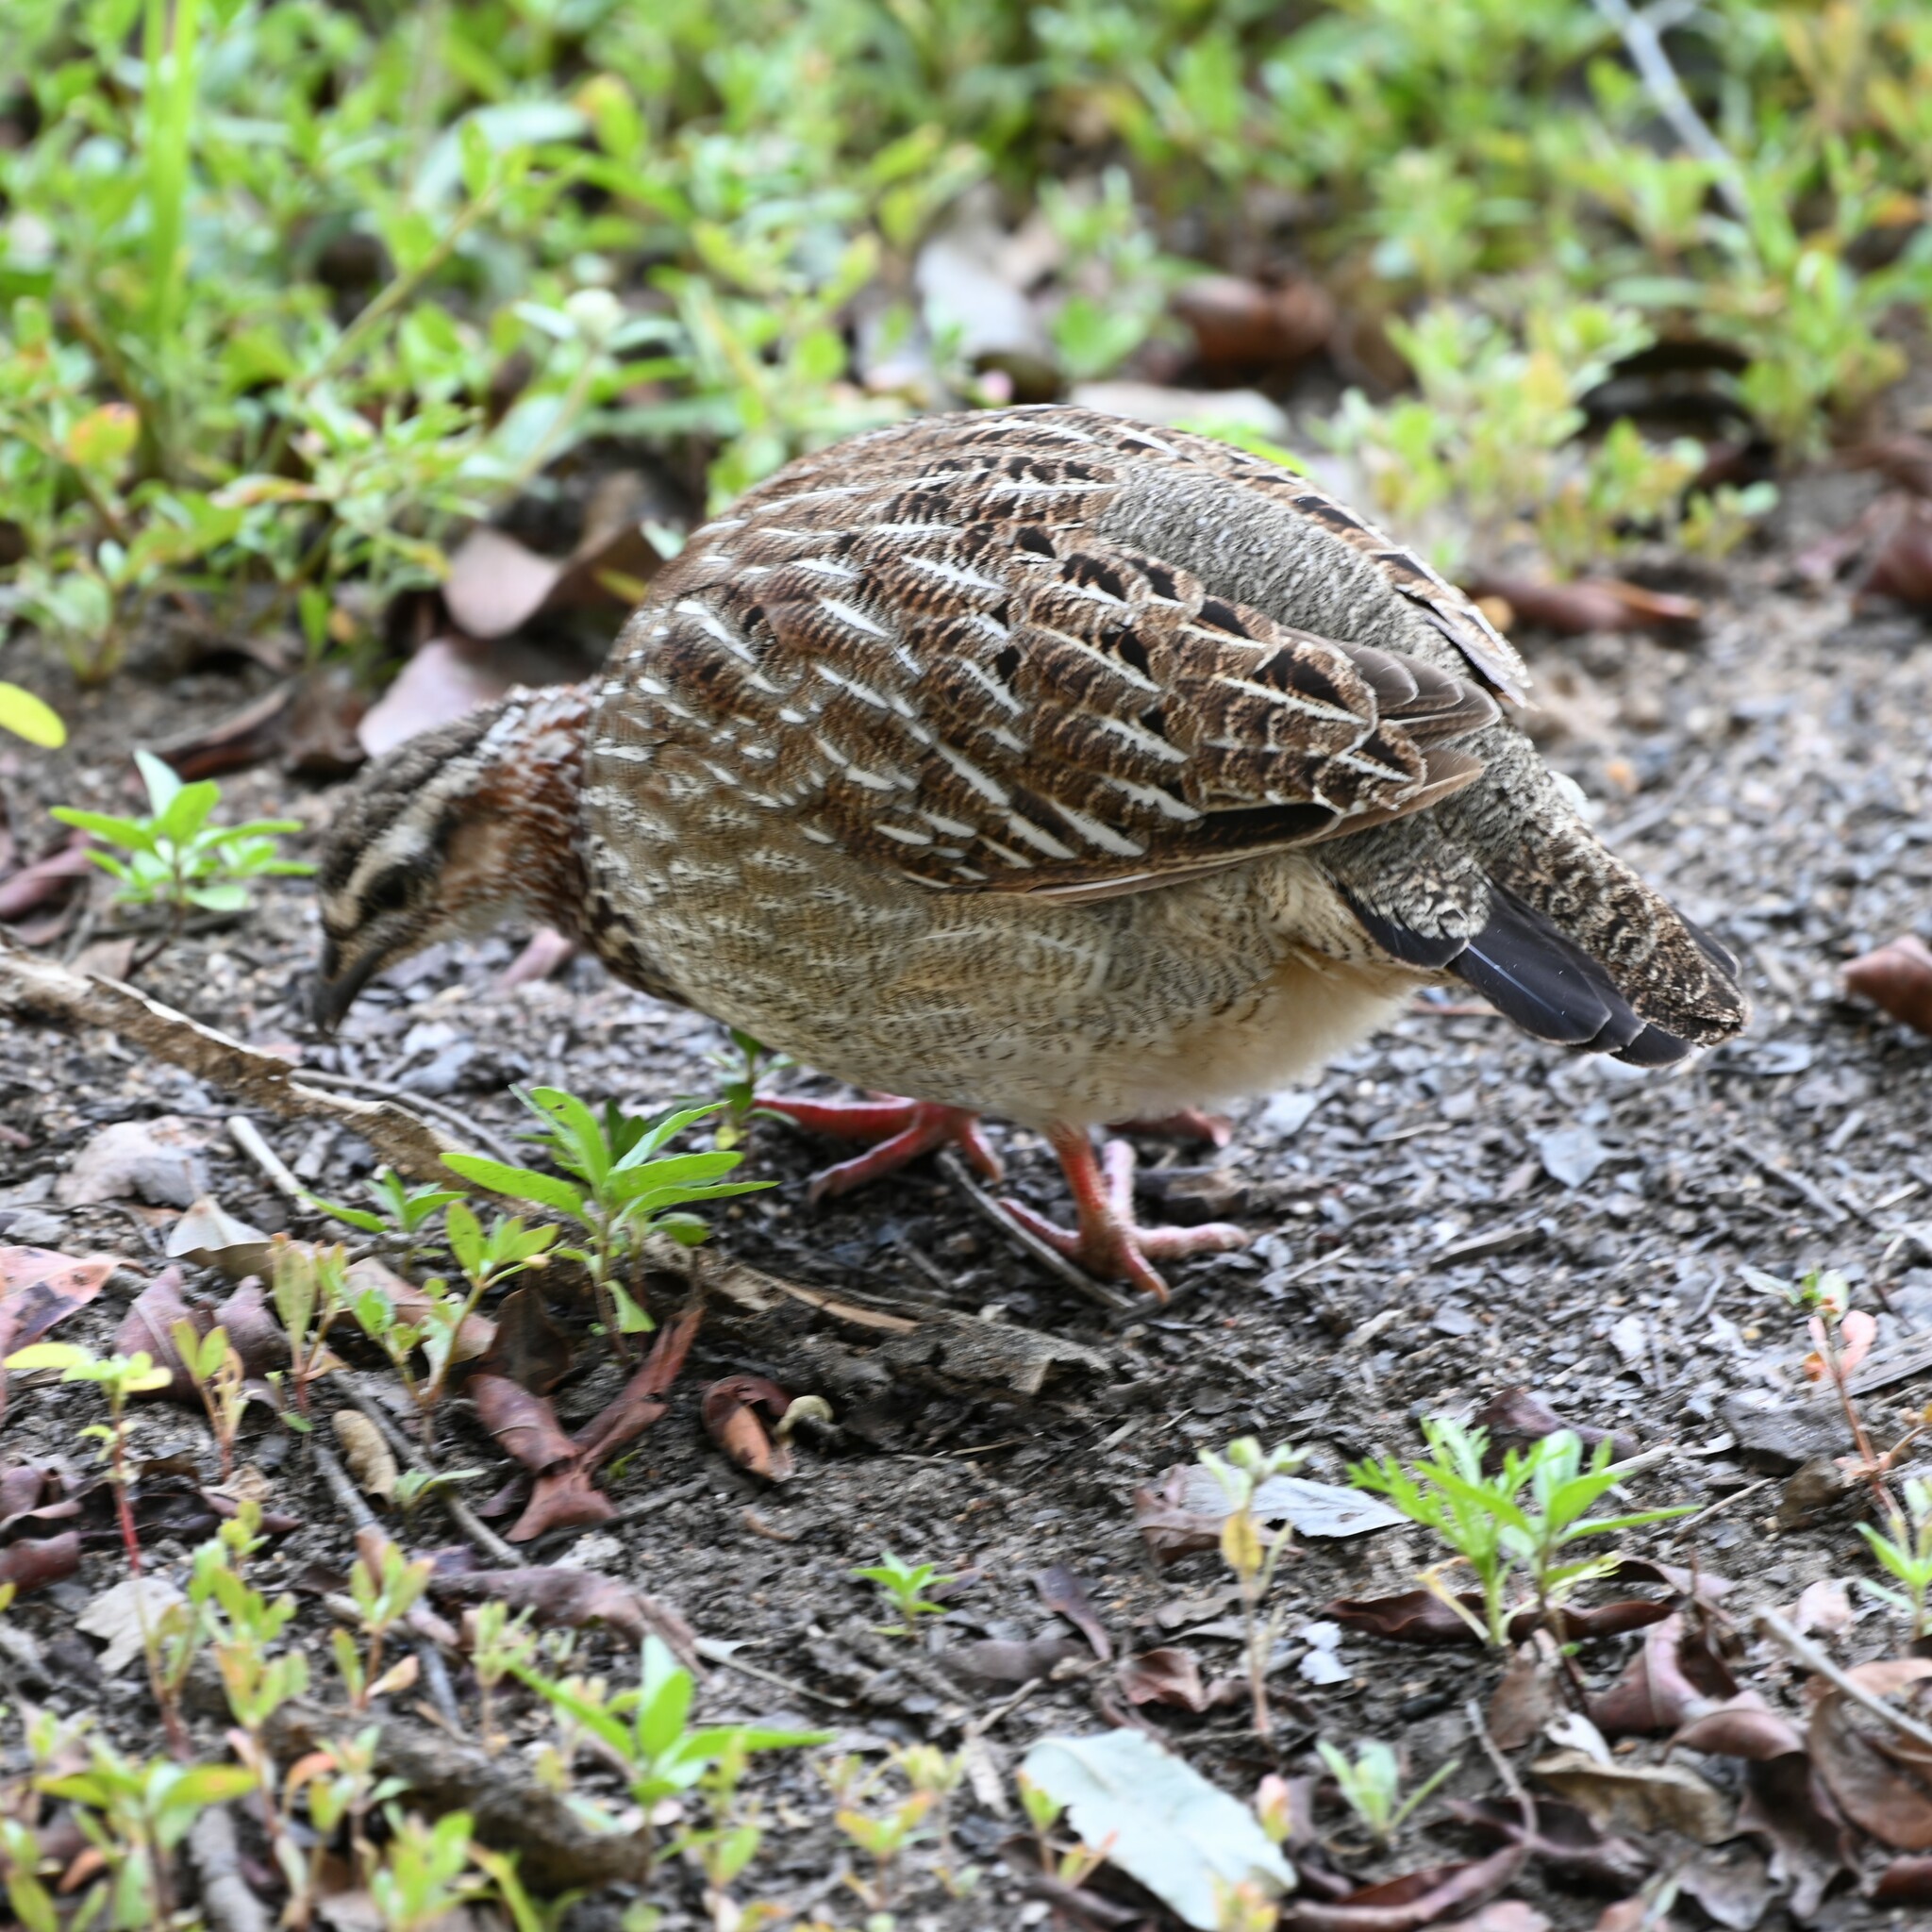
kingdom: Animalia
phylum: Chordata
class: Aves
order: Galliformes
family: Phasianidae
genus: Ortygornis
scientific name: Ortygornis sephaena
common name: Crested francolin
